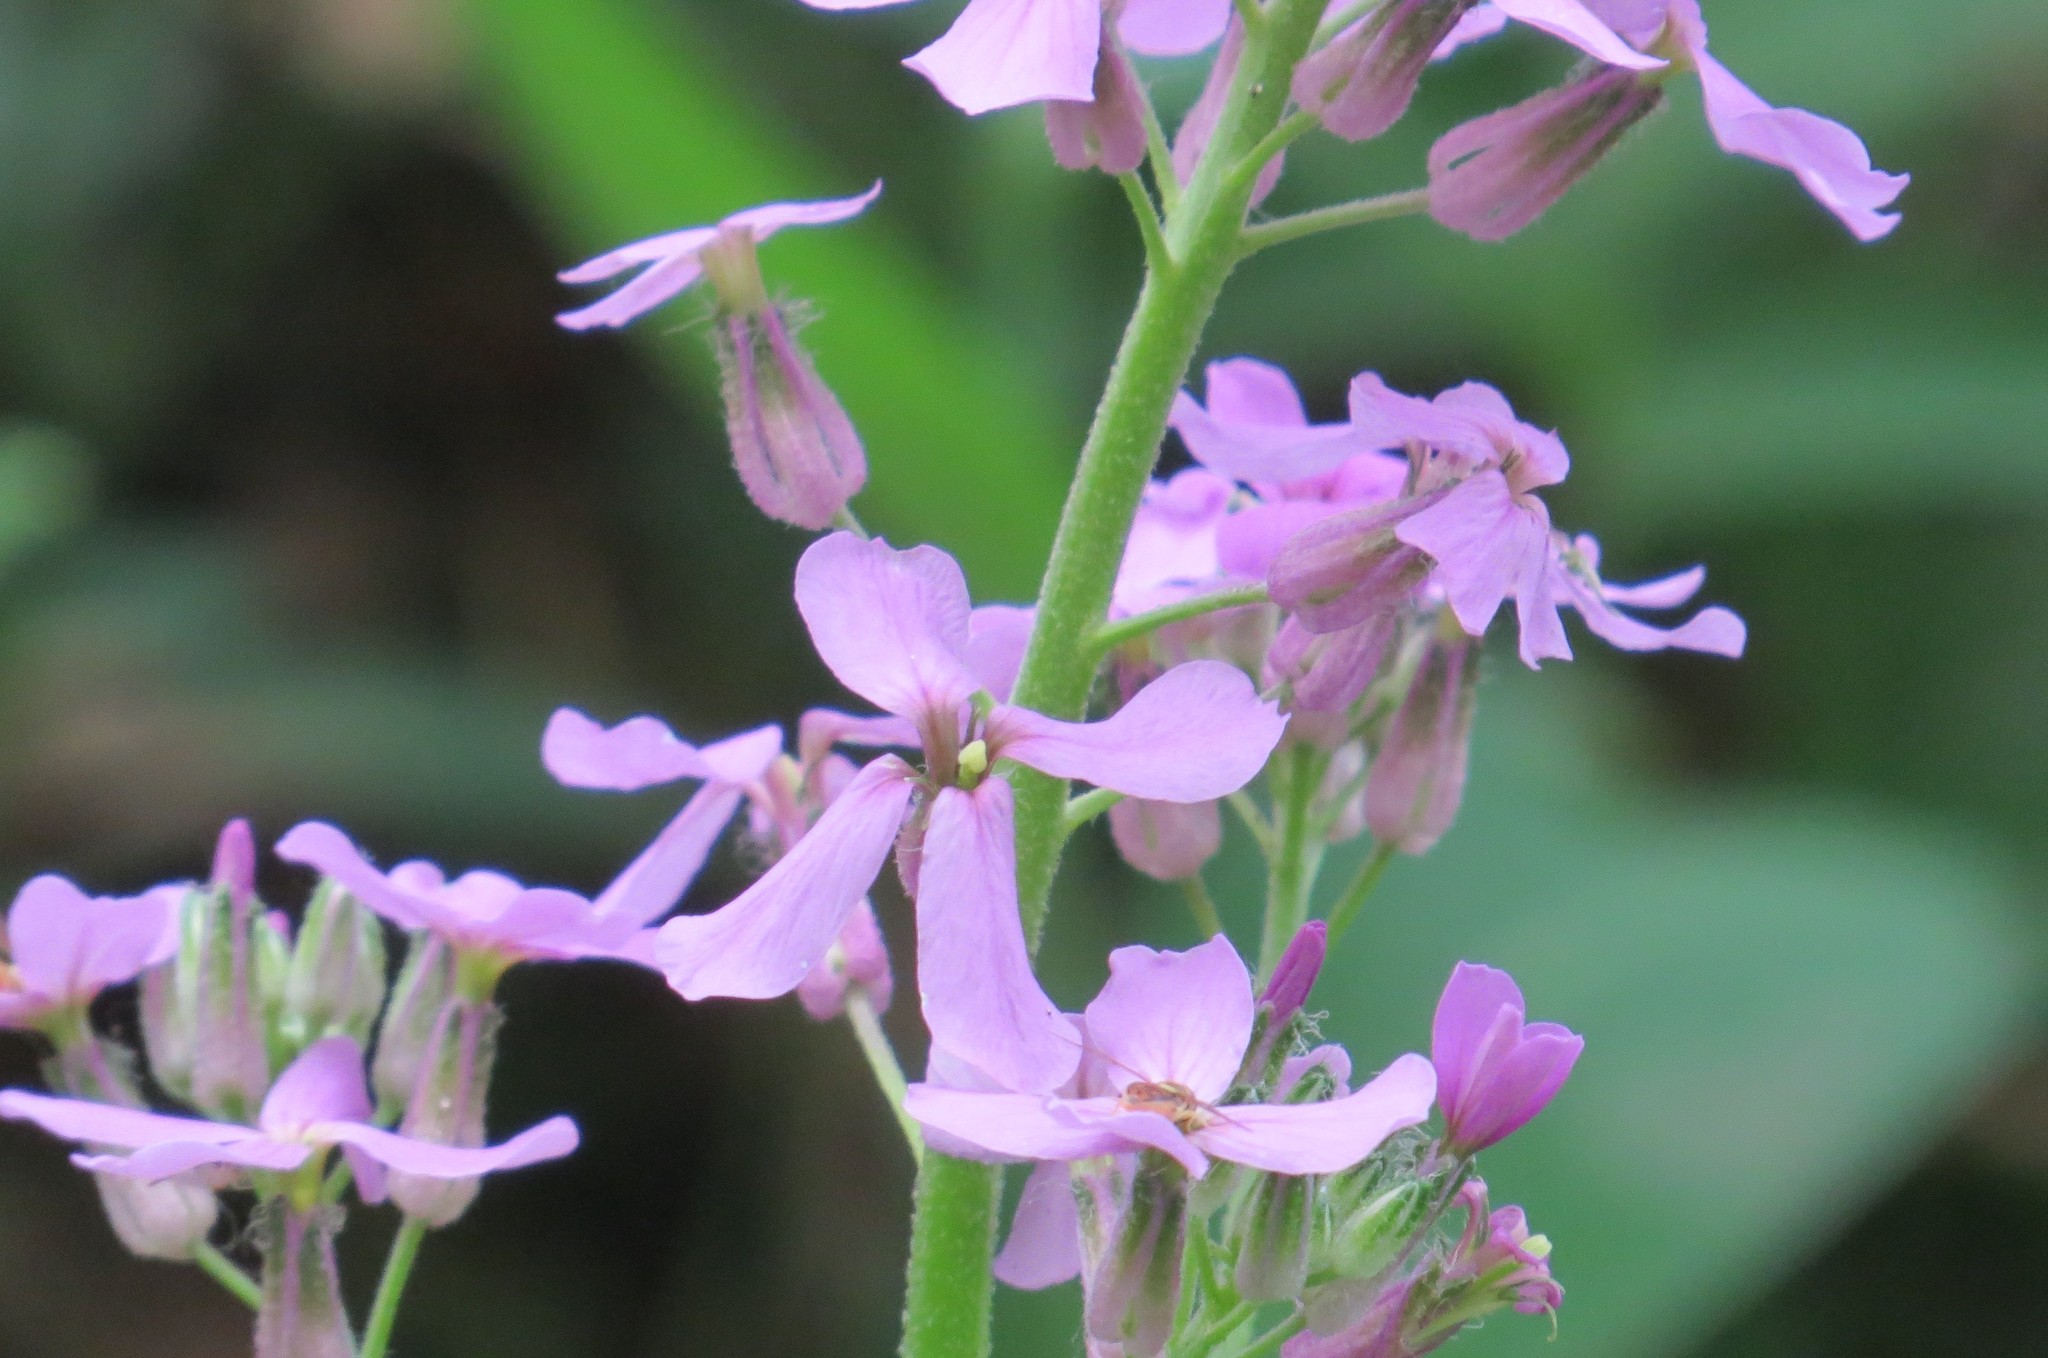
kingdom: Plantae
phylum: Tracheophyta
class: Magnoliopsida
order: Brassicales
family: Brassicaceae
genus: Hesperis
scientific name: Hesperis matronalis
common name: Dame's-violet
